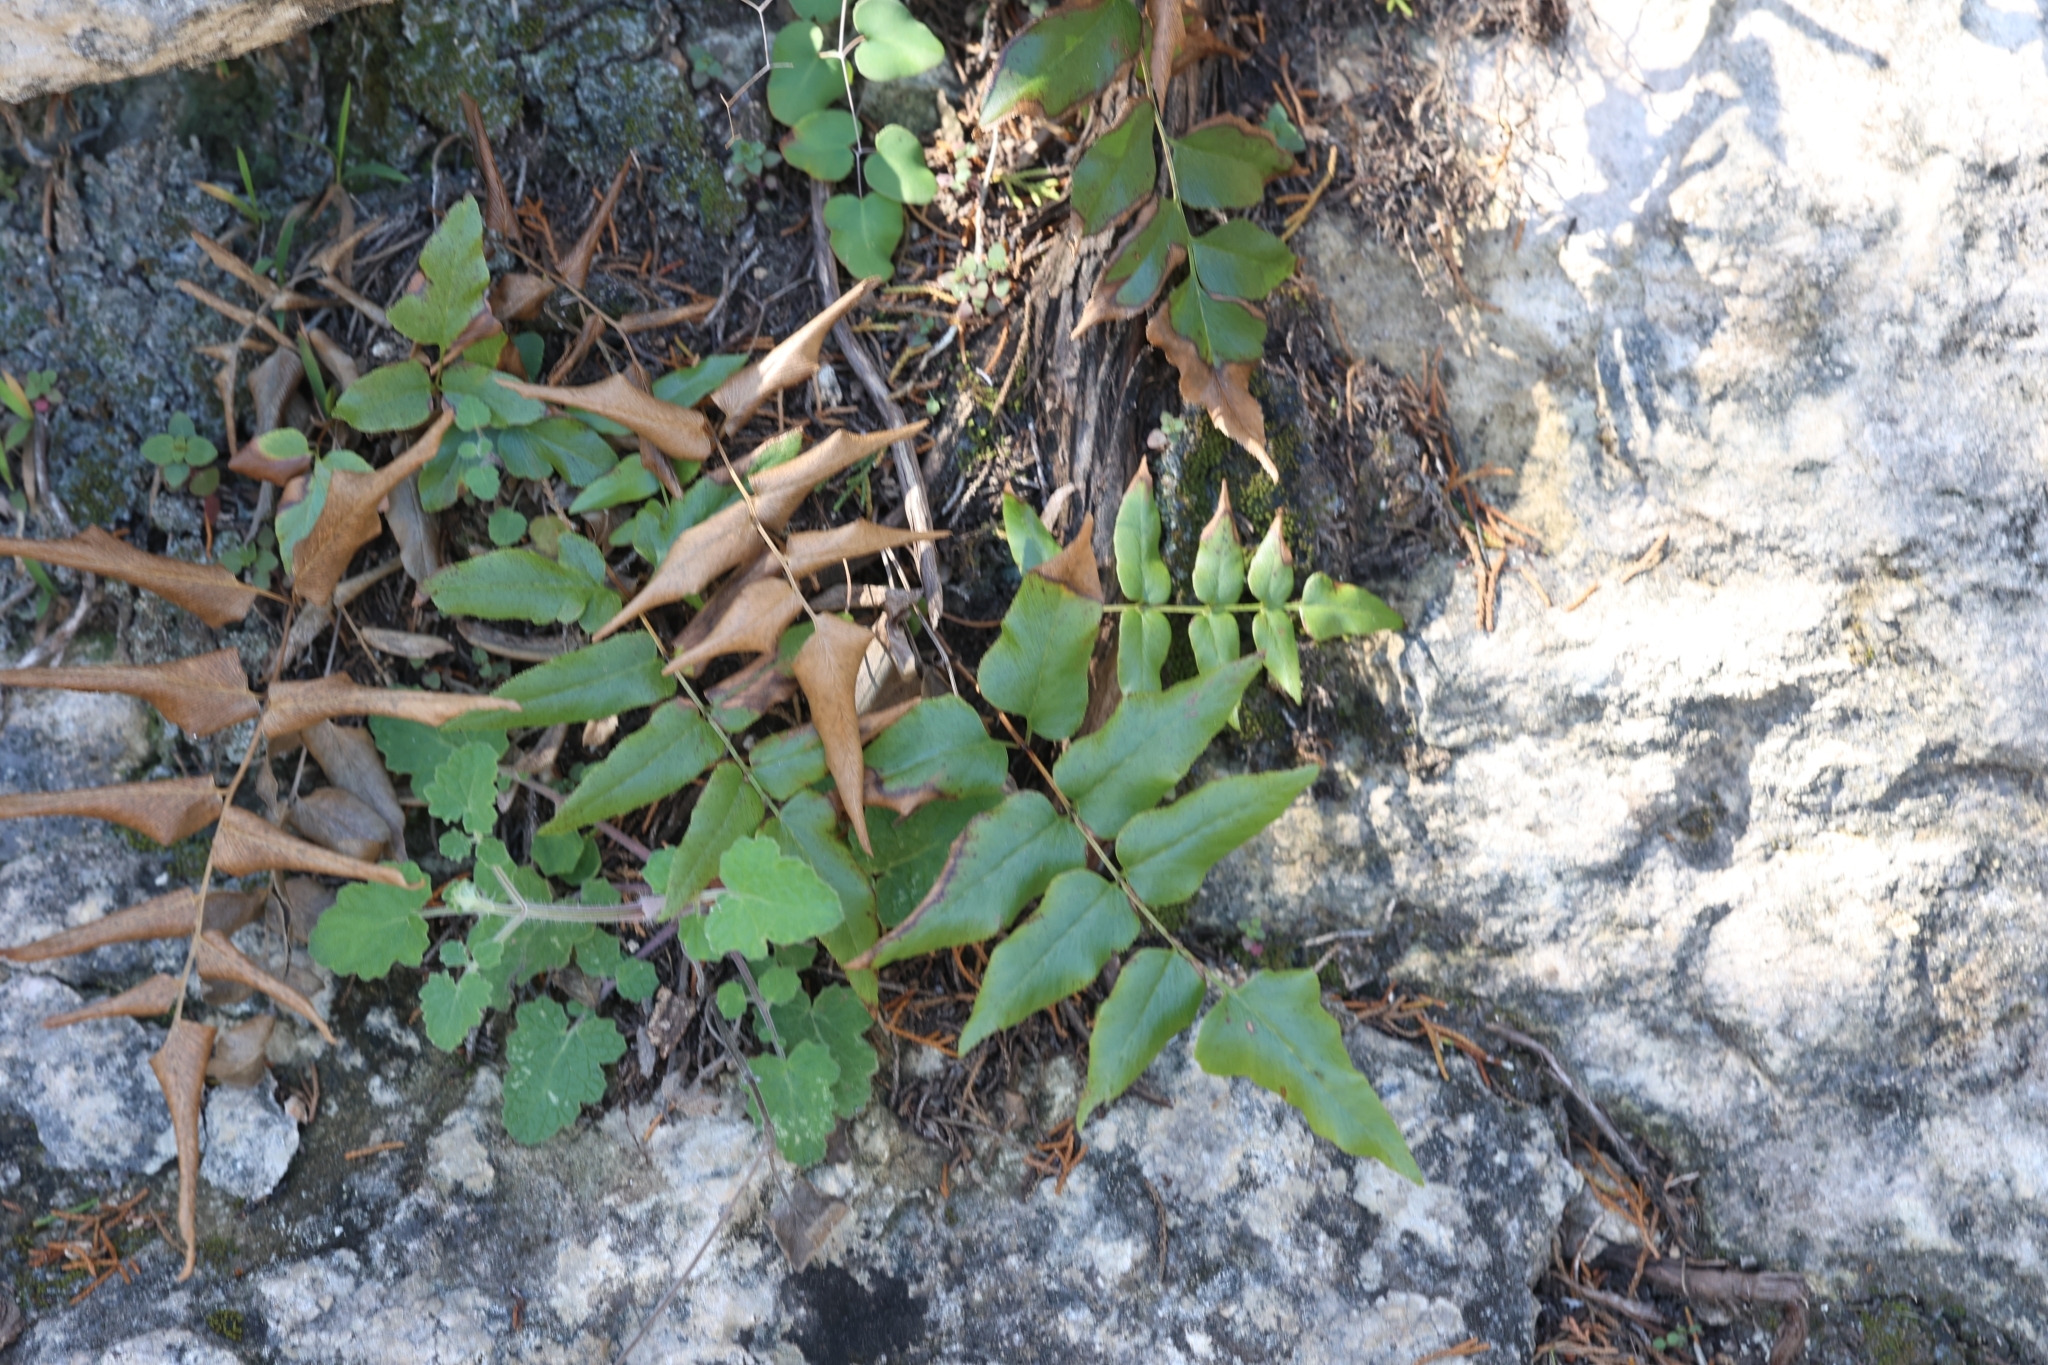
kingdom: Plantae
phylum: Tracheophyta
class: Polypodiopsida
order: Schizaeales
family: Anemiaceae
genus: Anemia
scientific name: Anemia mexicana
